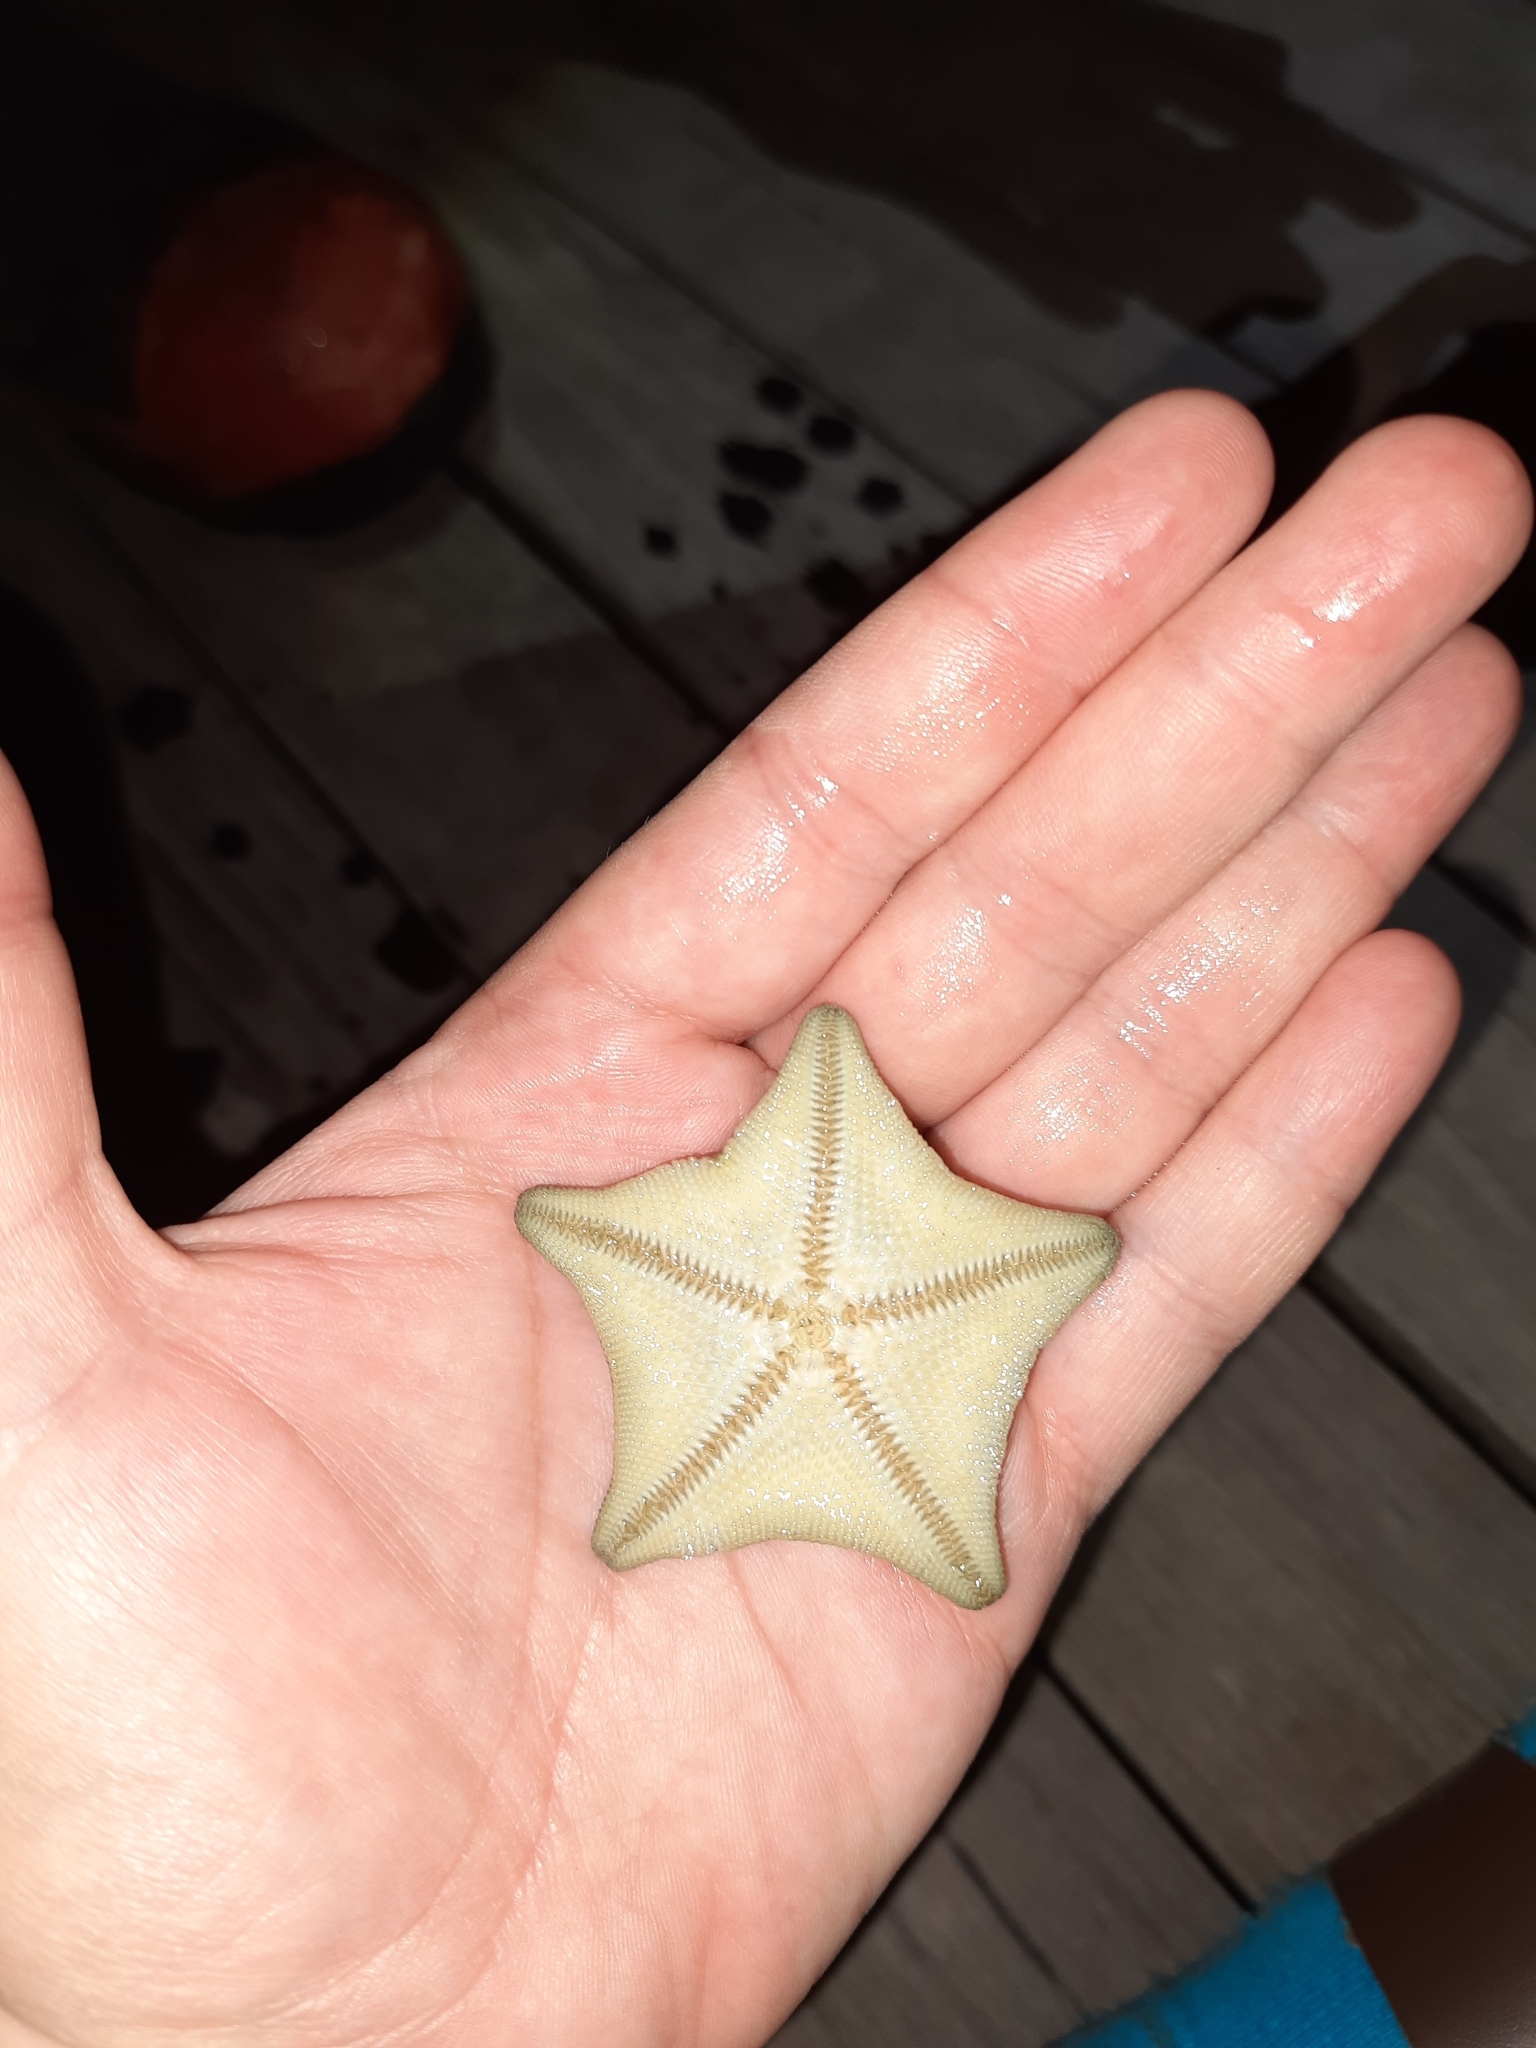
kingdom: Animalia
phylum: Echinodermata
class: Asteroidea
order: Valvatida
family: Asterinidae
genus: Patiriella
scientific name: Patiriella regularis
